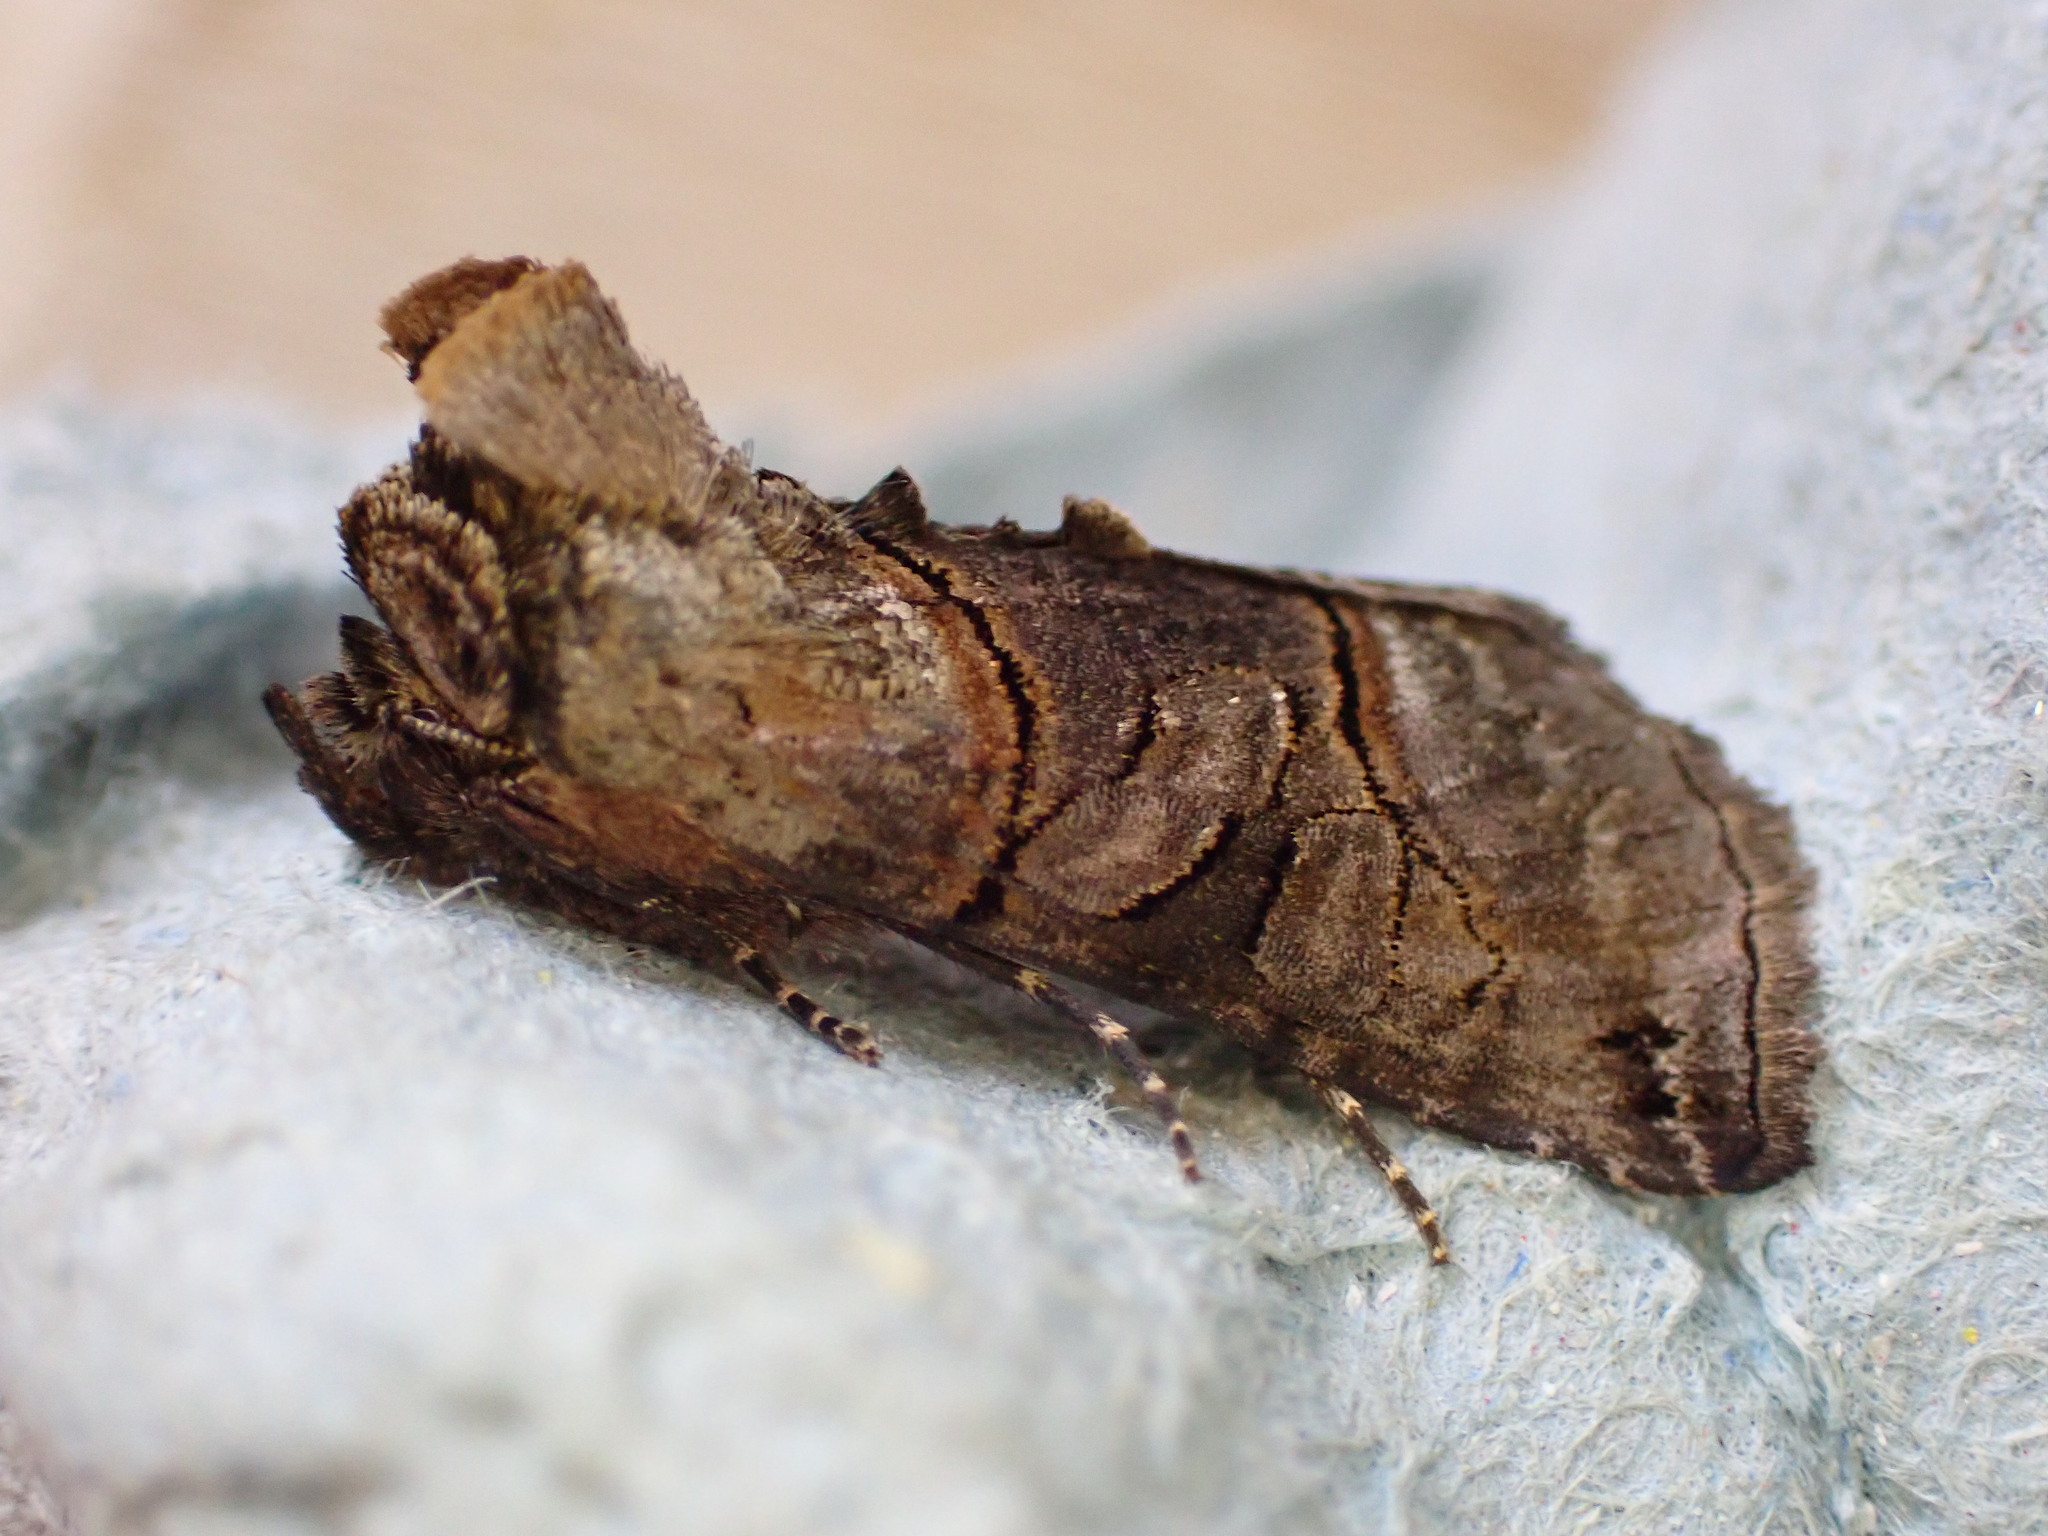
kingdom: Animalia
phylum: Arthropoda
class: Insecta
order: Lepidoptera
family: Noctuidae
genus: Abrostola
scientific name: Abrostola tripartita
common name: Spectacle
